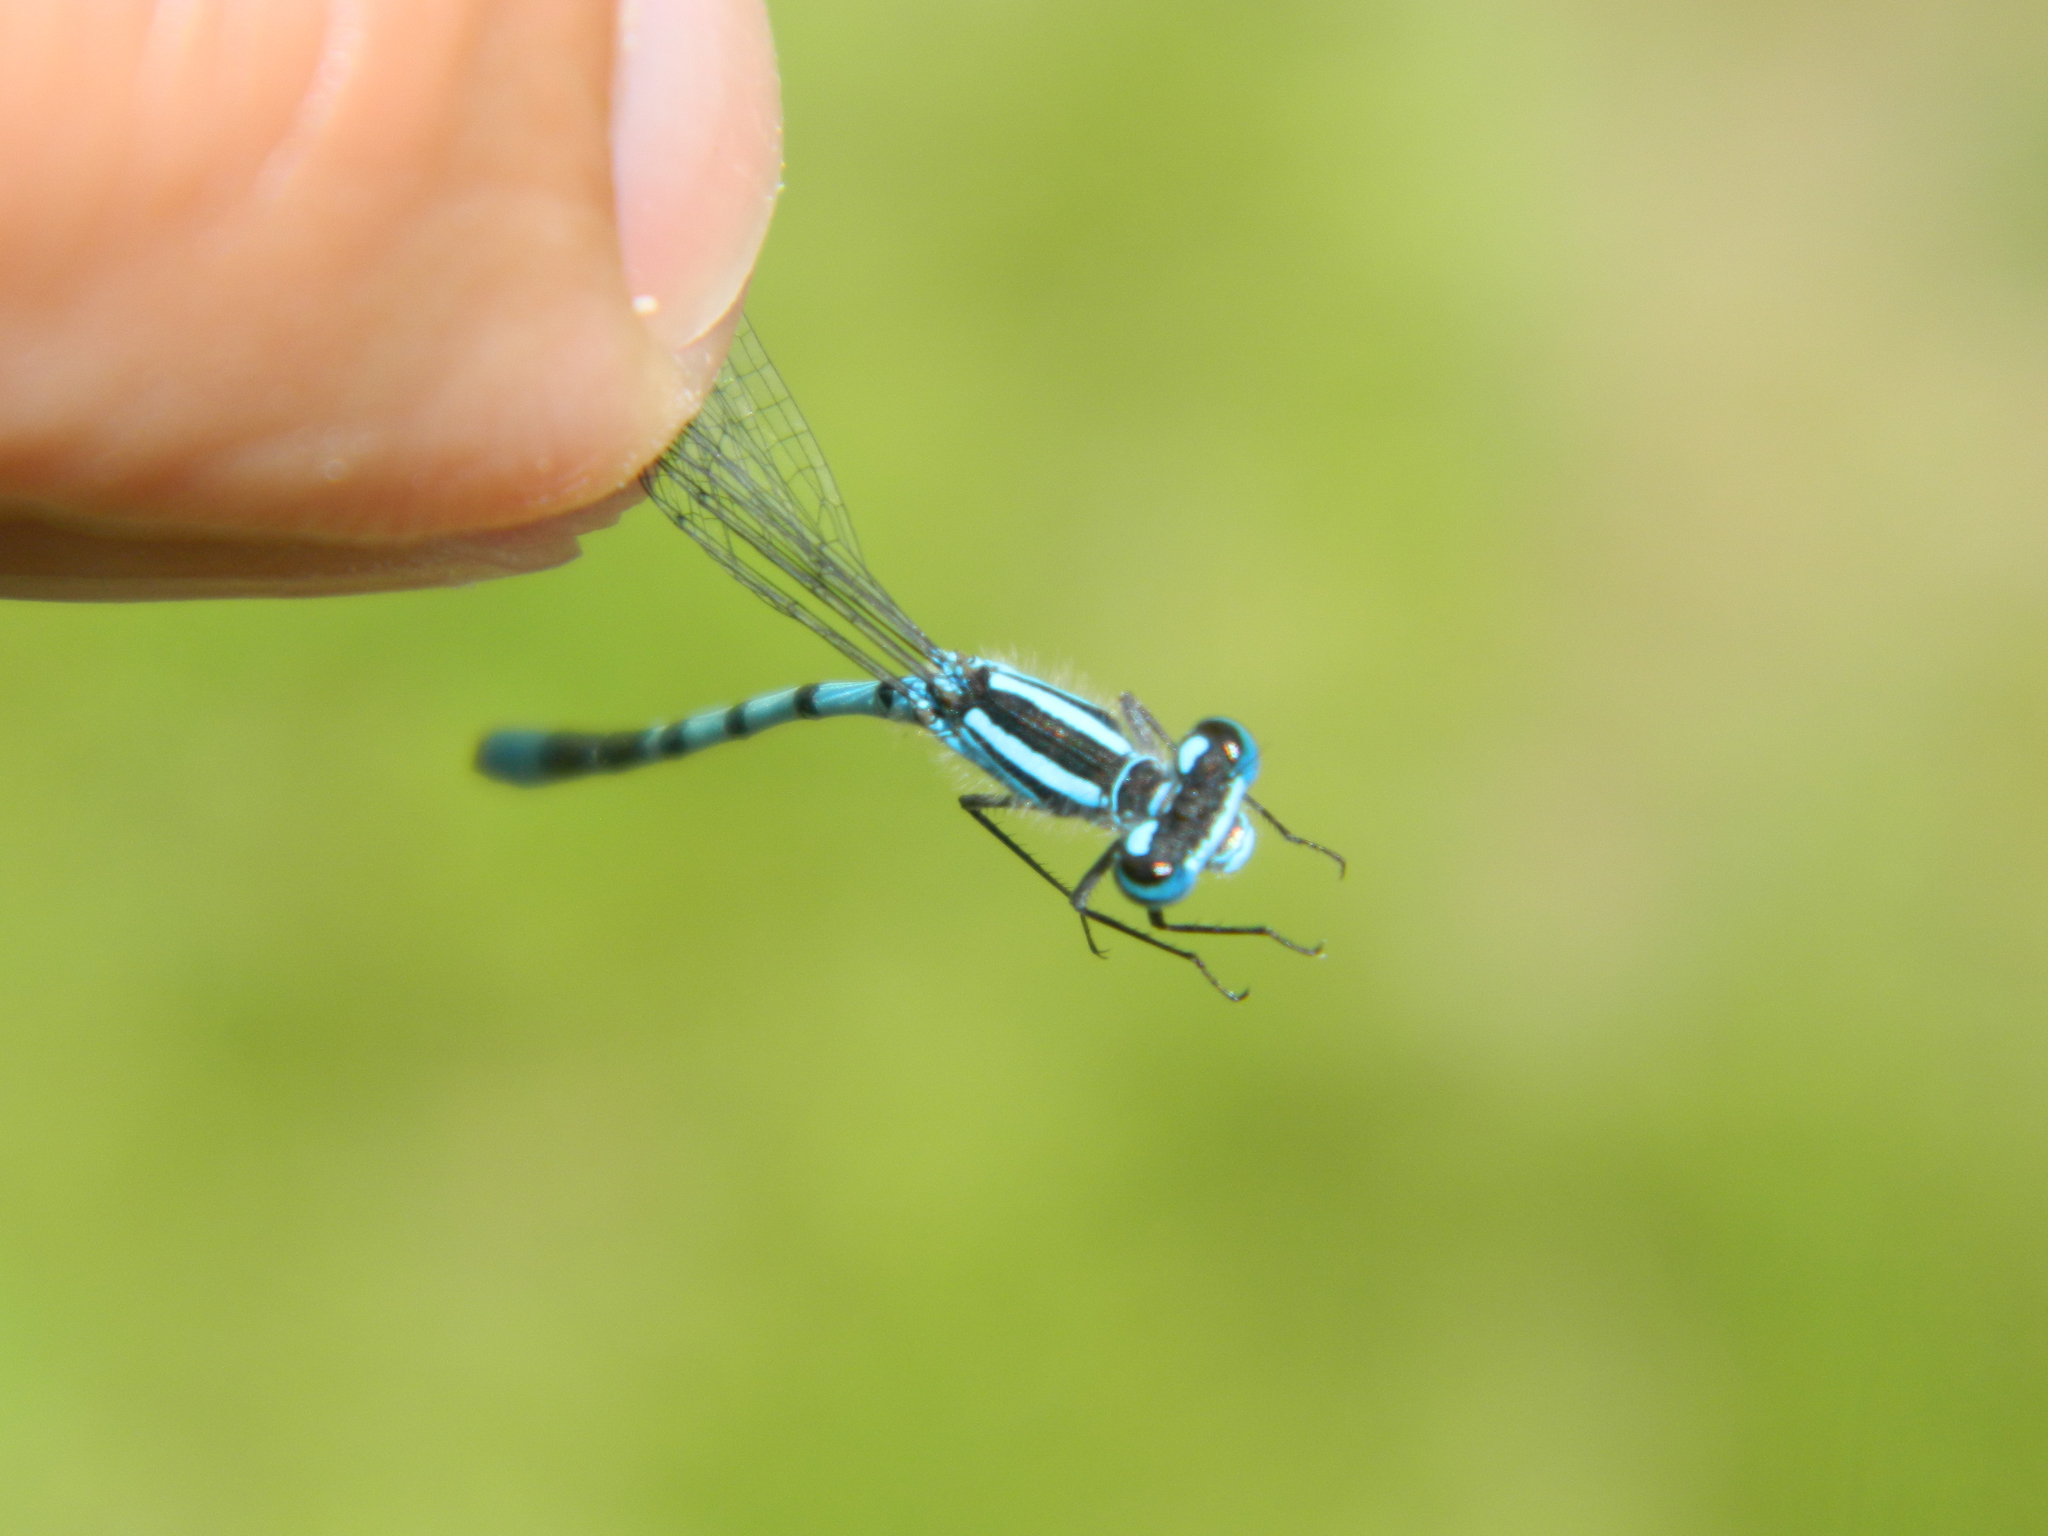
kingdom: Animalia
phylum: Arthropoda
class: Insecta
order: Odonata
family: Coenagrionidae
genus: Enallagma
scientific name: Enallagma ebrium
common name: Marsh bluet
